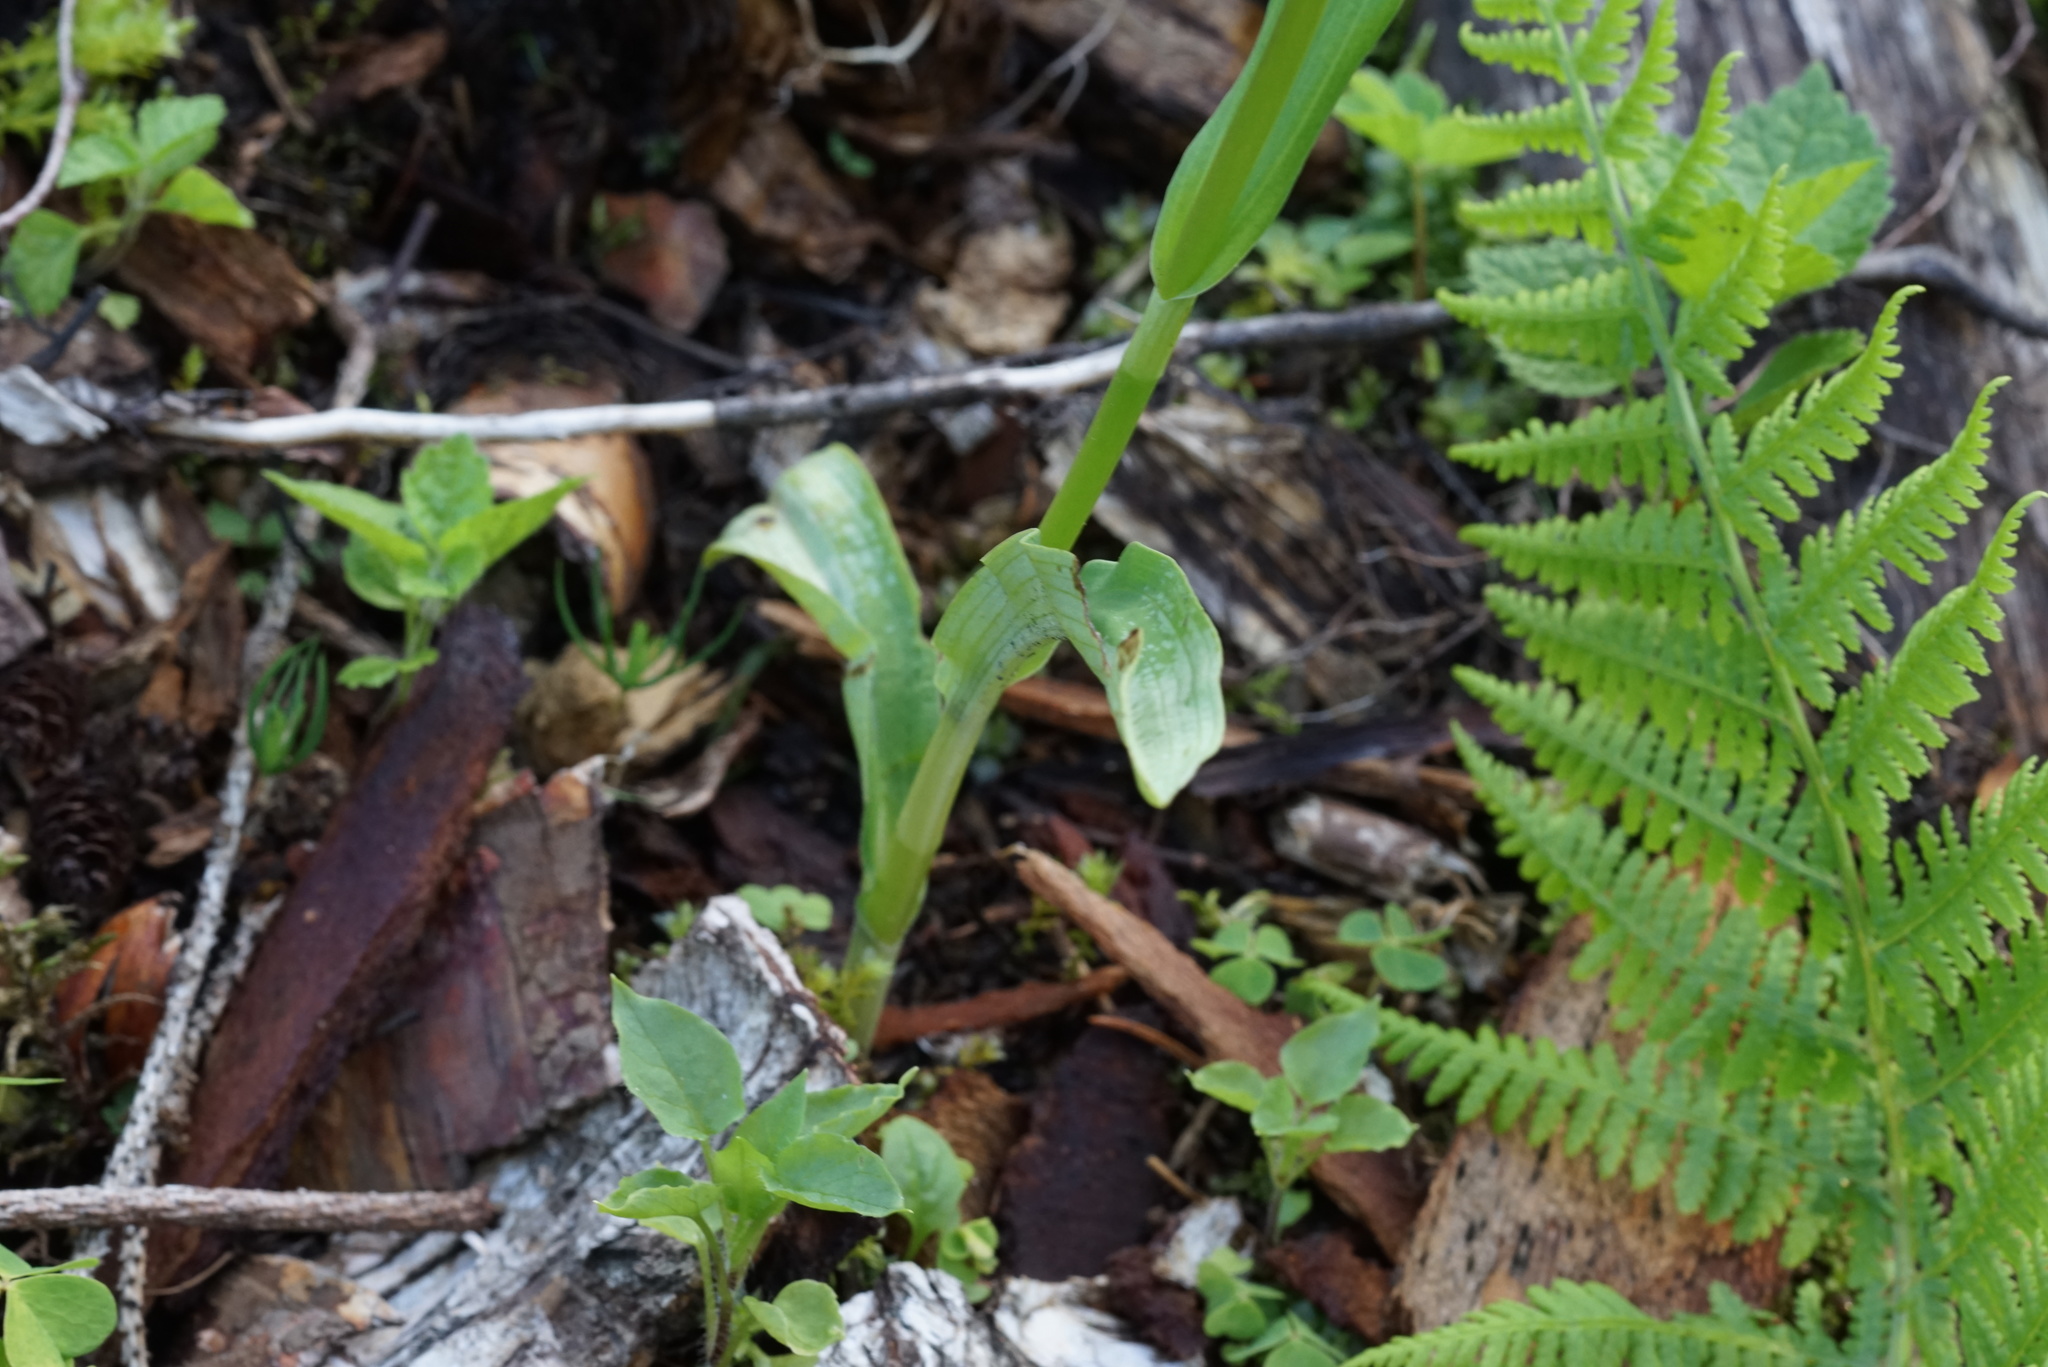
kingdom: Plantae
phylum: Tracheophyta
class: Liliopsida
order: Asparagales
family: Orchidaceae
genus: Dactylorhiza
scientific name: Dactylorhiza maculata
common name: Heath spotted-orchid
